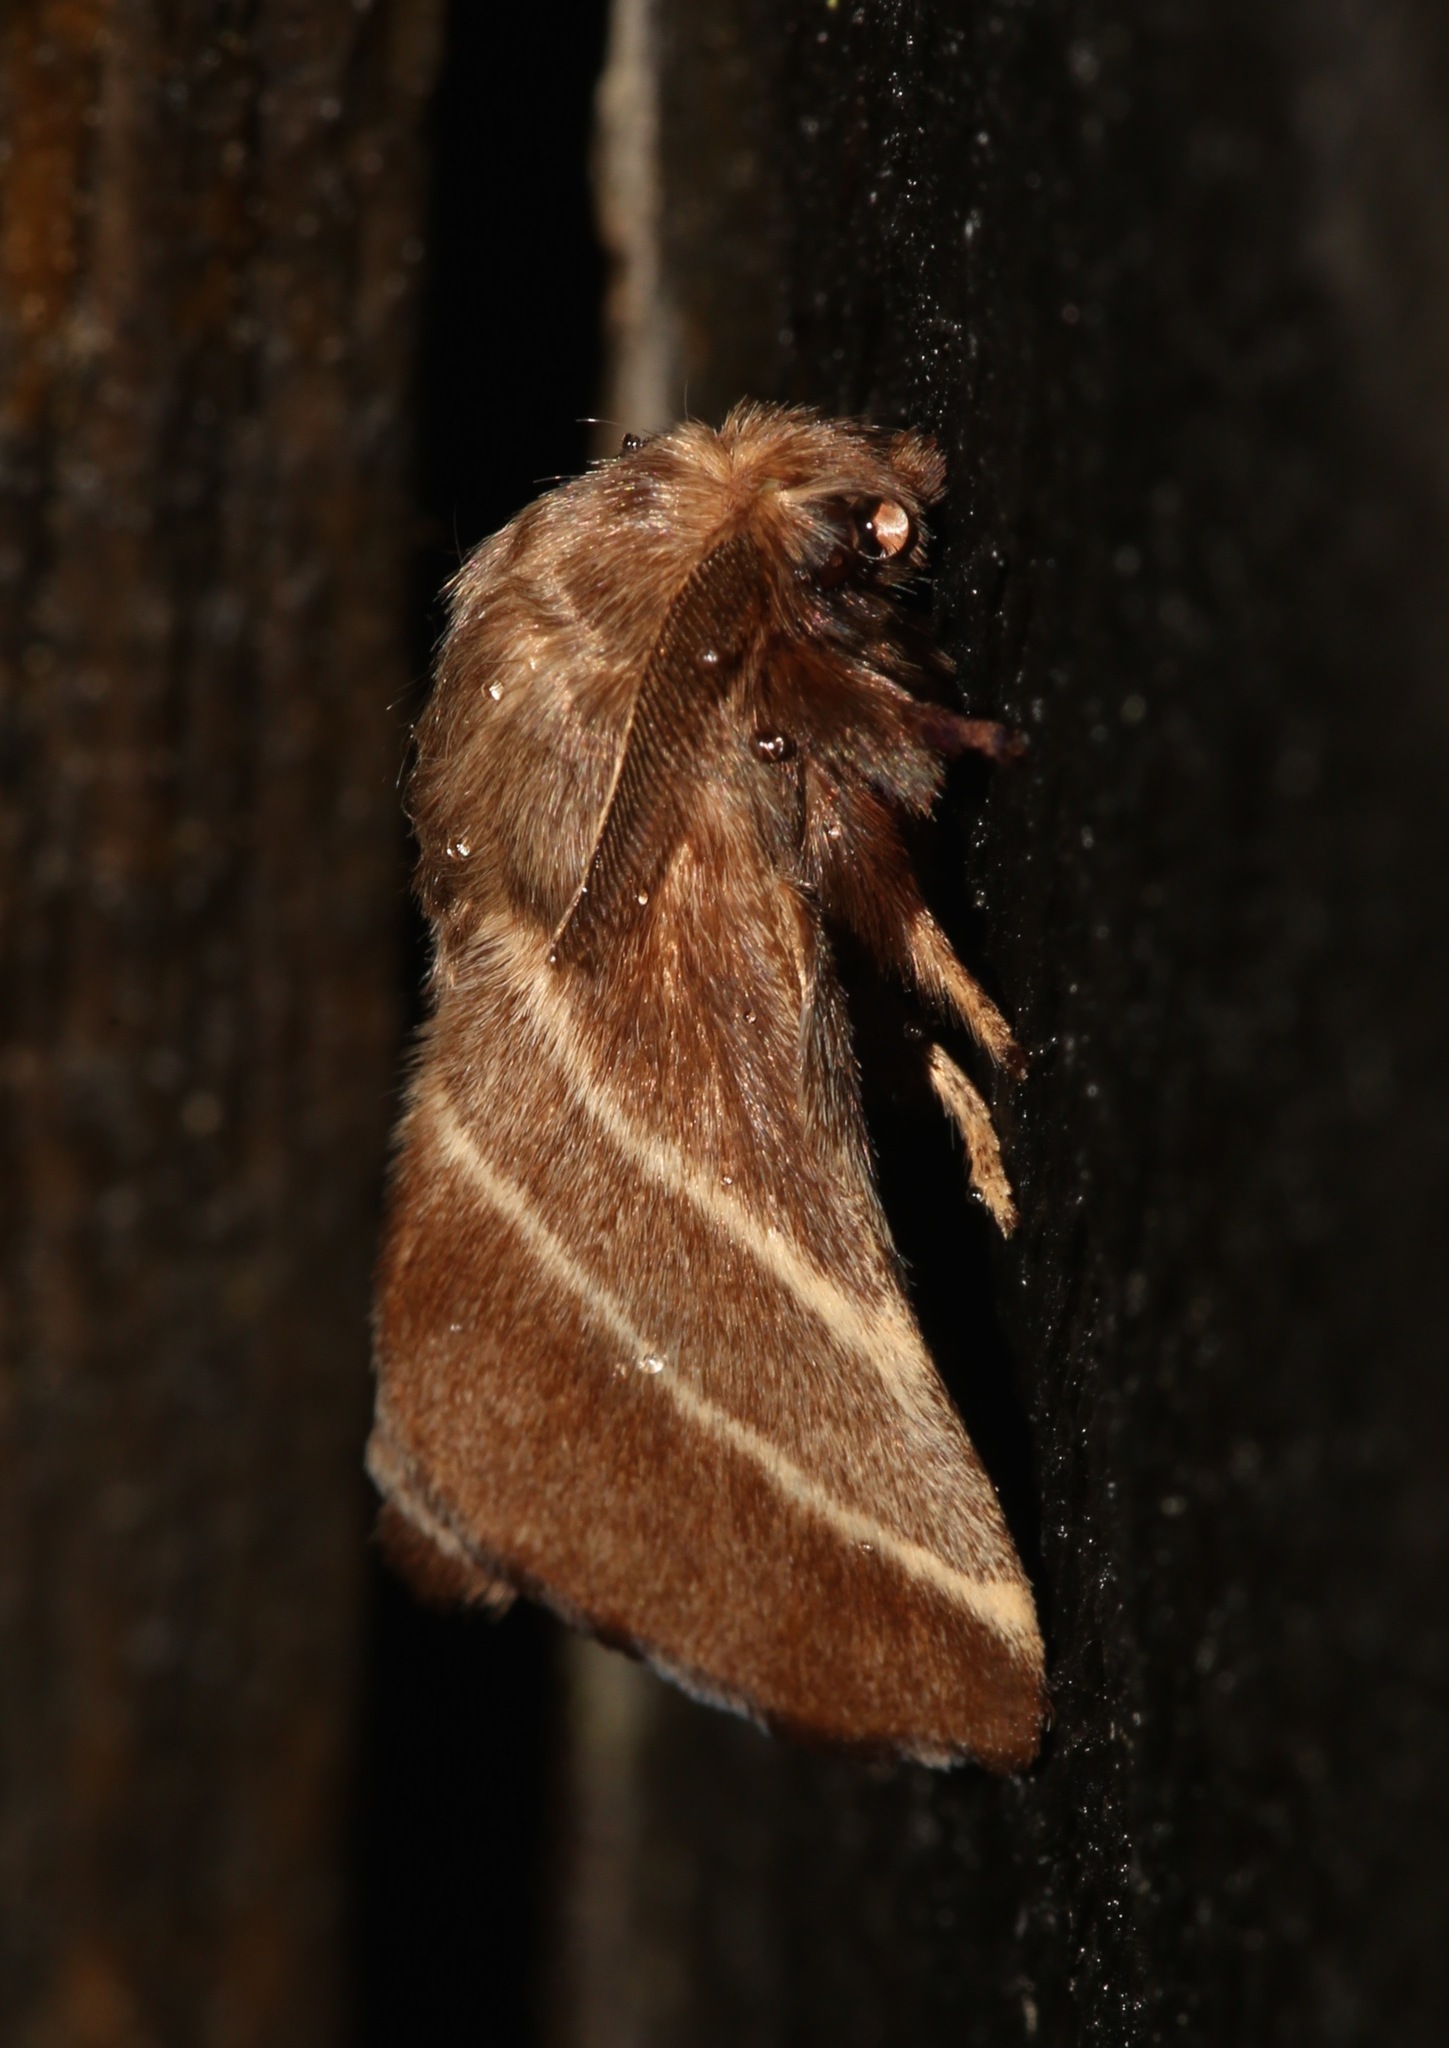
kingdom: Animalia
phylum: Arthropoda
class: Insecta
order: Lepidoptera
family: Lasiocampidae
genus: Malacosoma
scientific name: Malacosoma americana
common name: Eastern tent caterpillar moth
